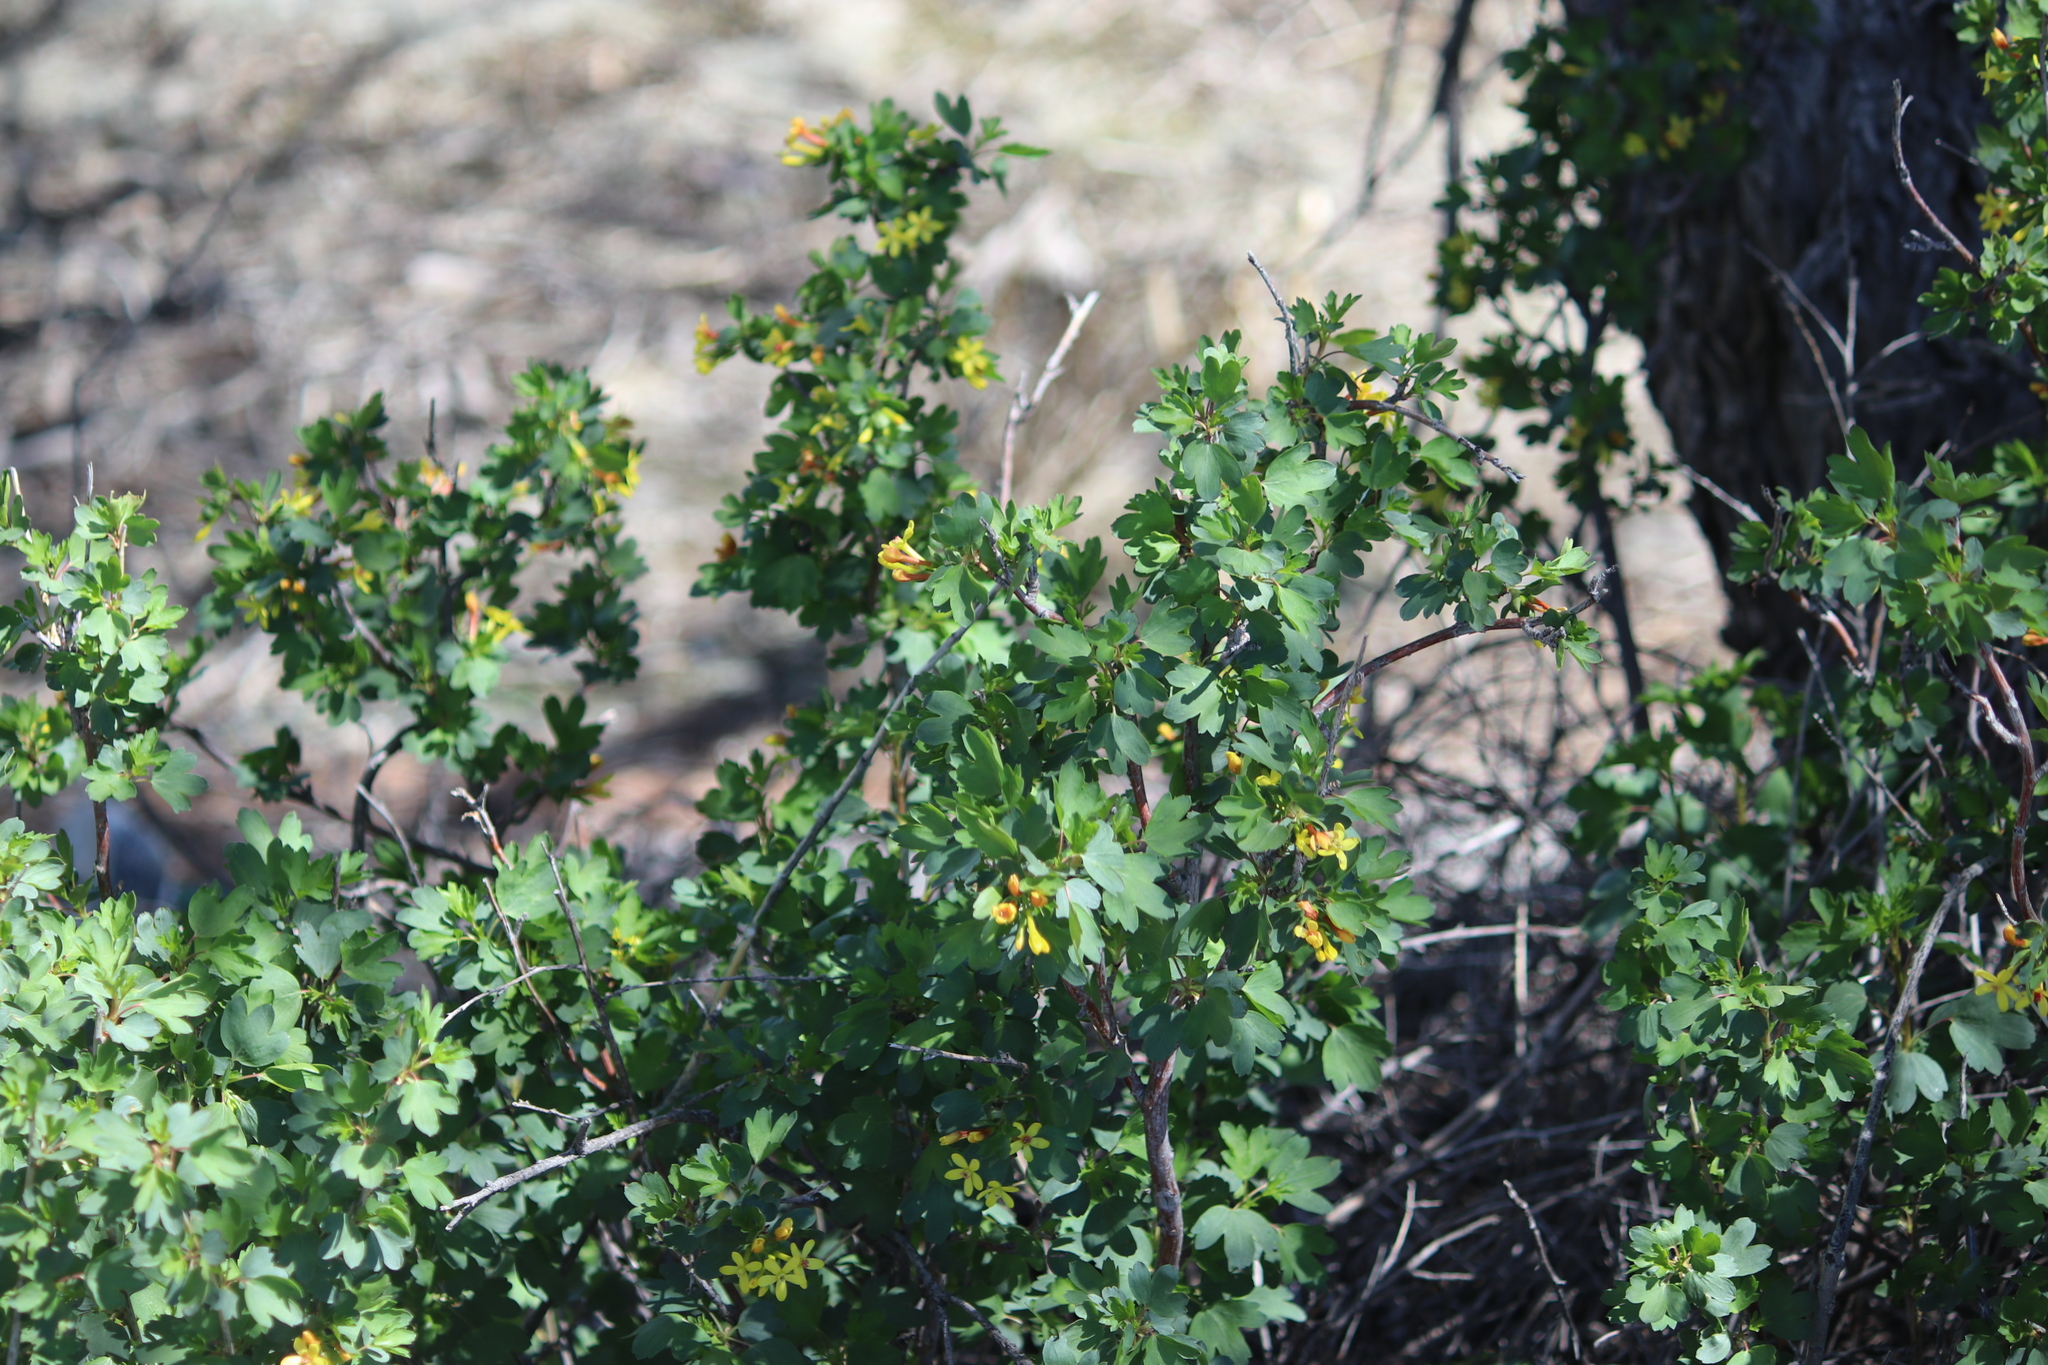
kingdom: Plantae
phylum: Tracheophyta
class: Magnoliopsida
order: Saxifragales
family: Grossulariaceae
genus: Ribes
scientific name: Ribes aureum
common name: Golden currant
